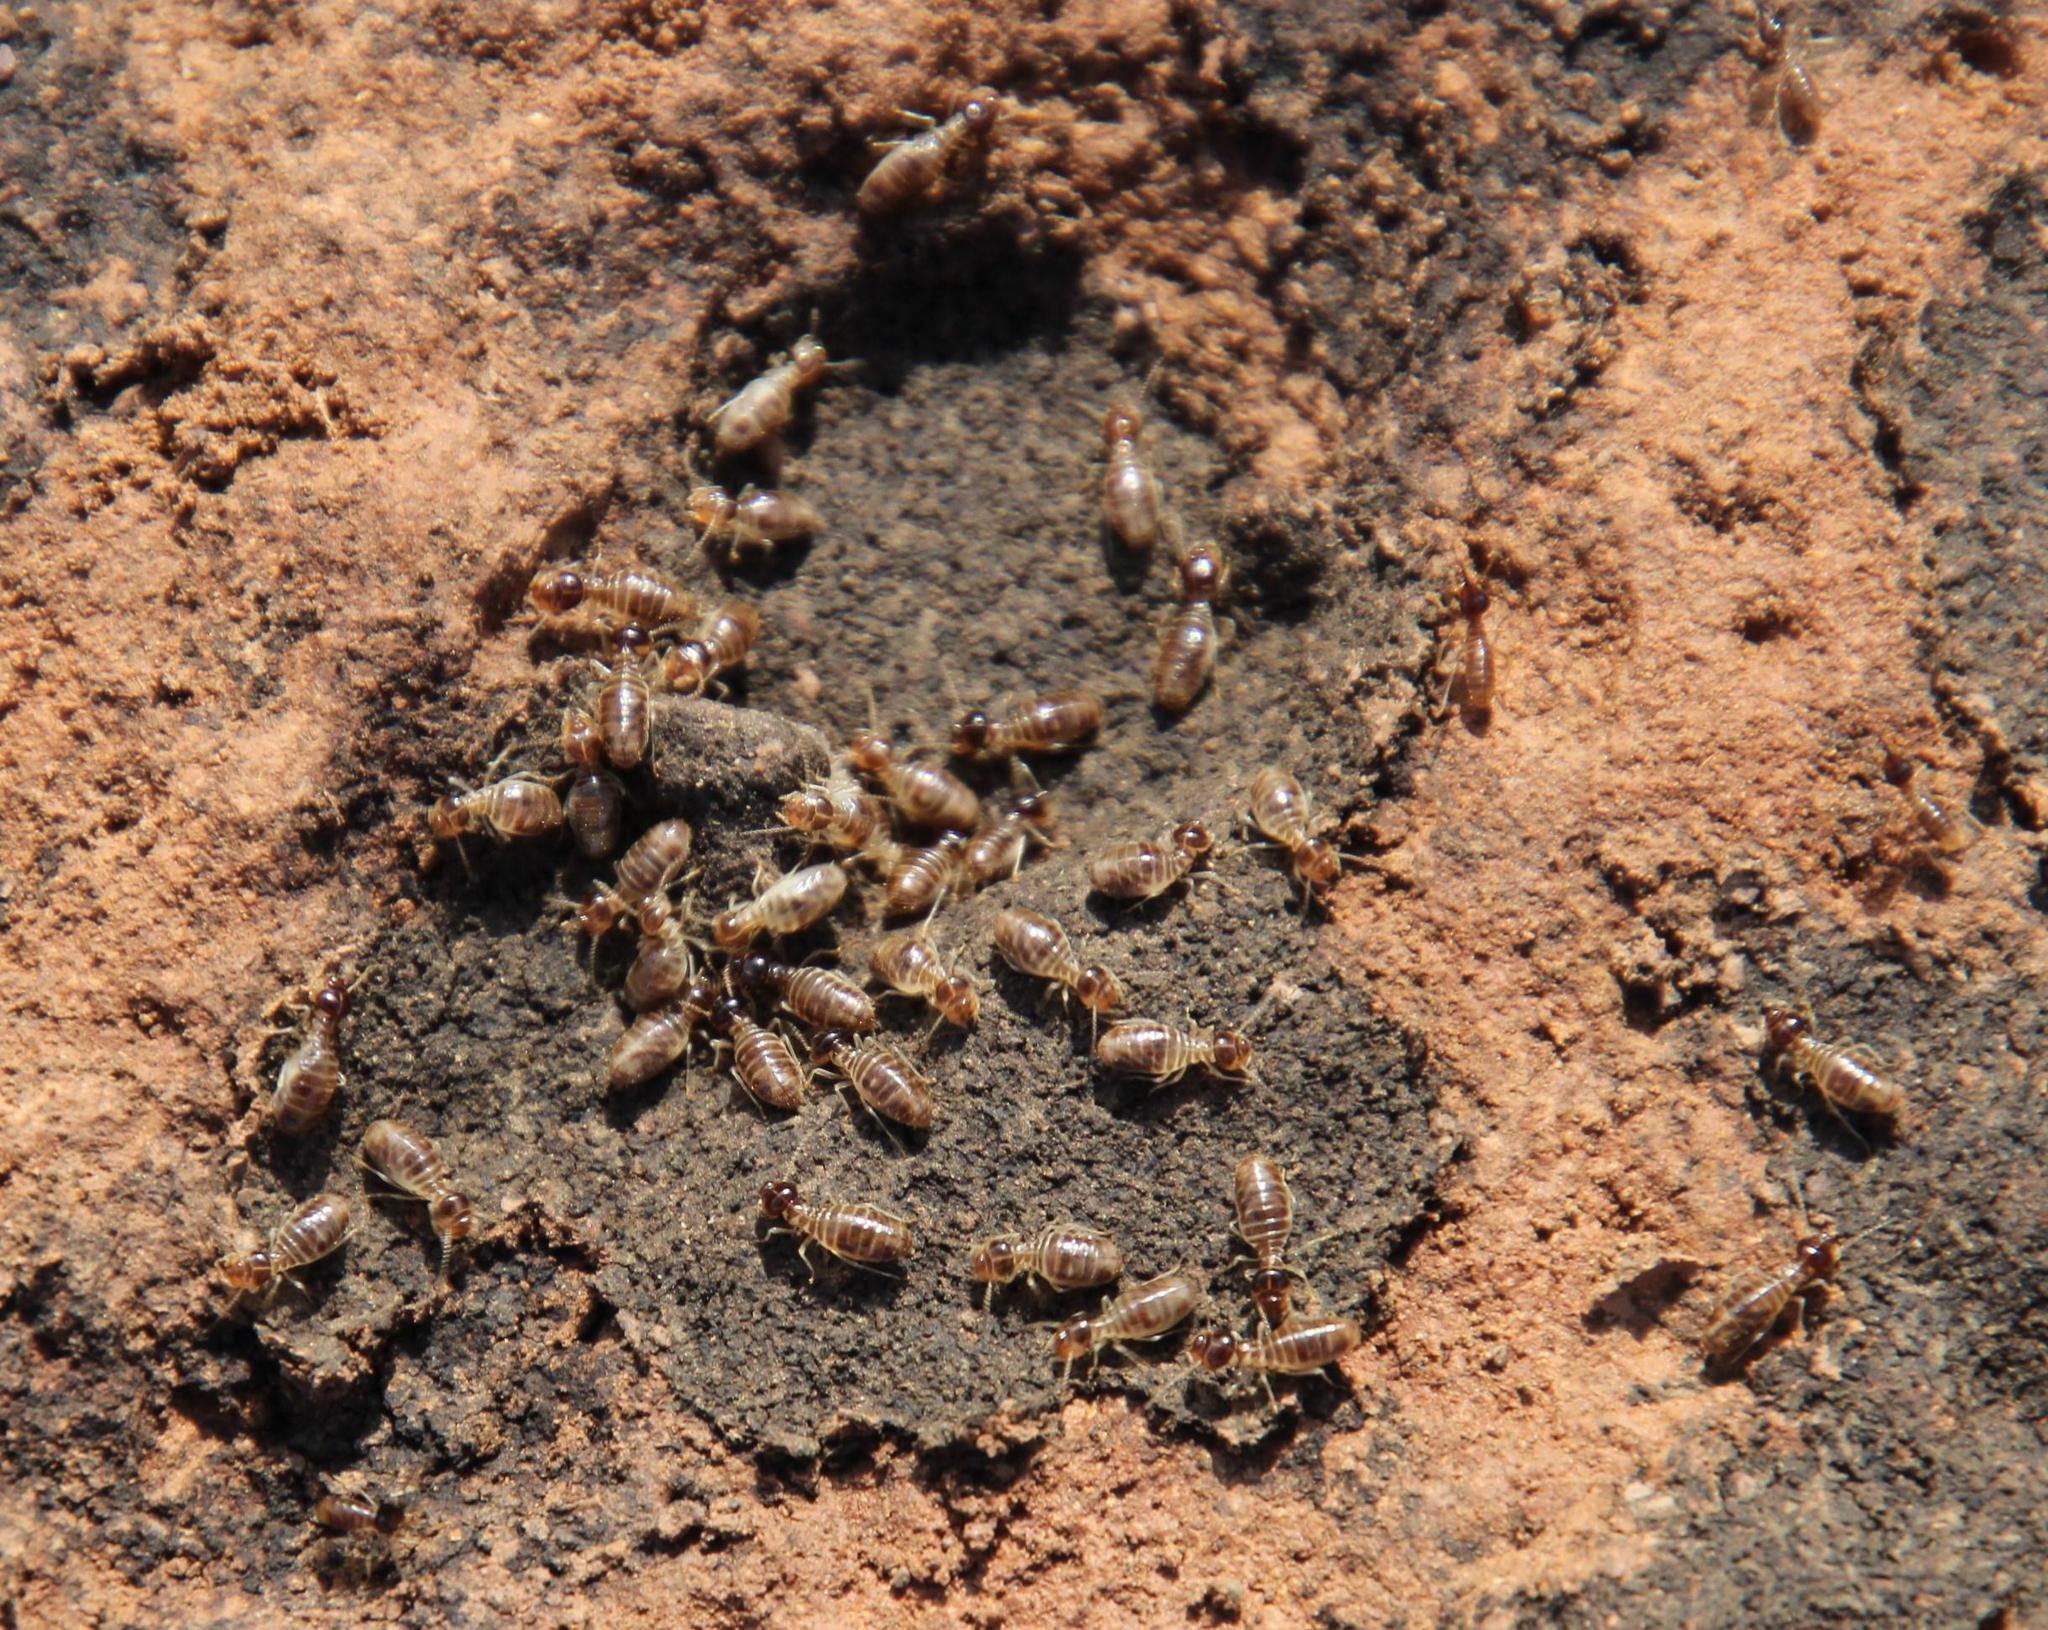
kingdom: Animalia
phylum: Arthropoda
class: Insecta
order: Blattodea
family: Termitidae
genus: Fulleritermes
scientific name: Fulleritermes mallyi
